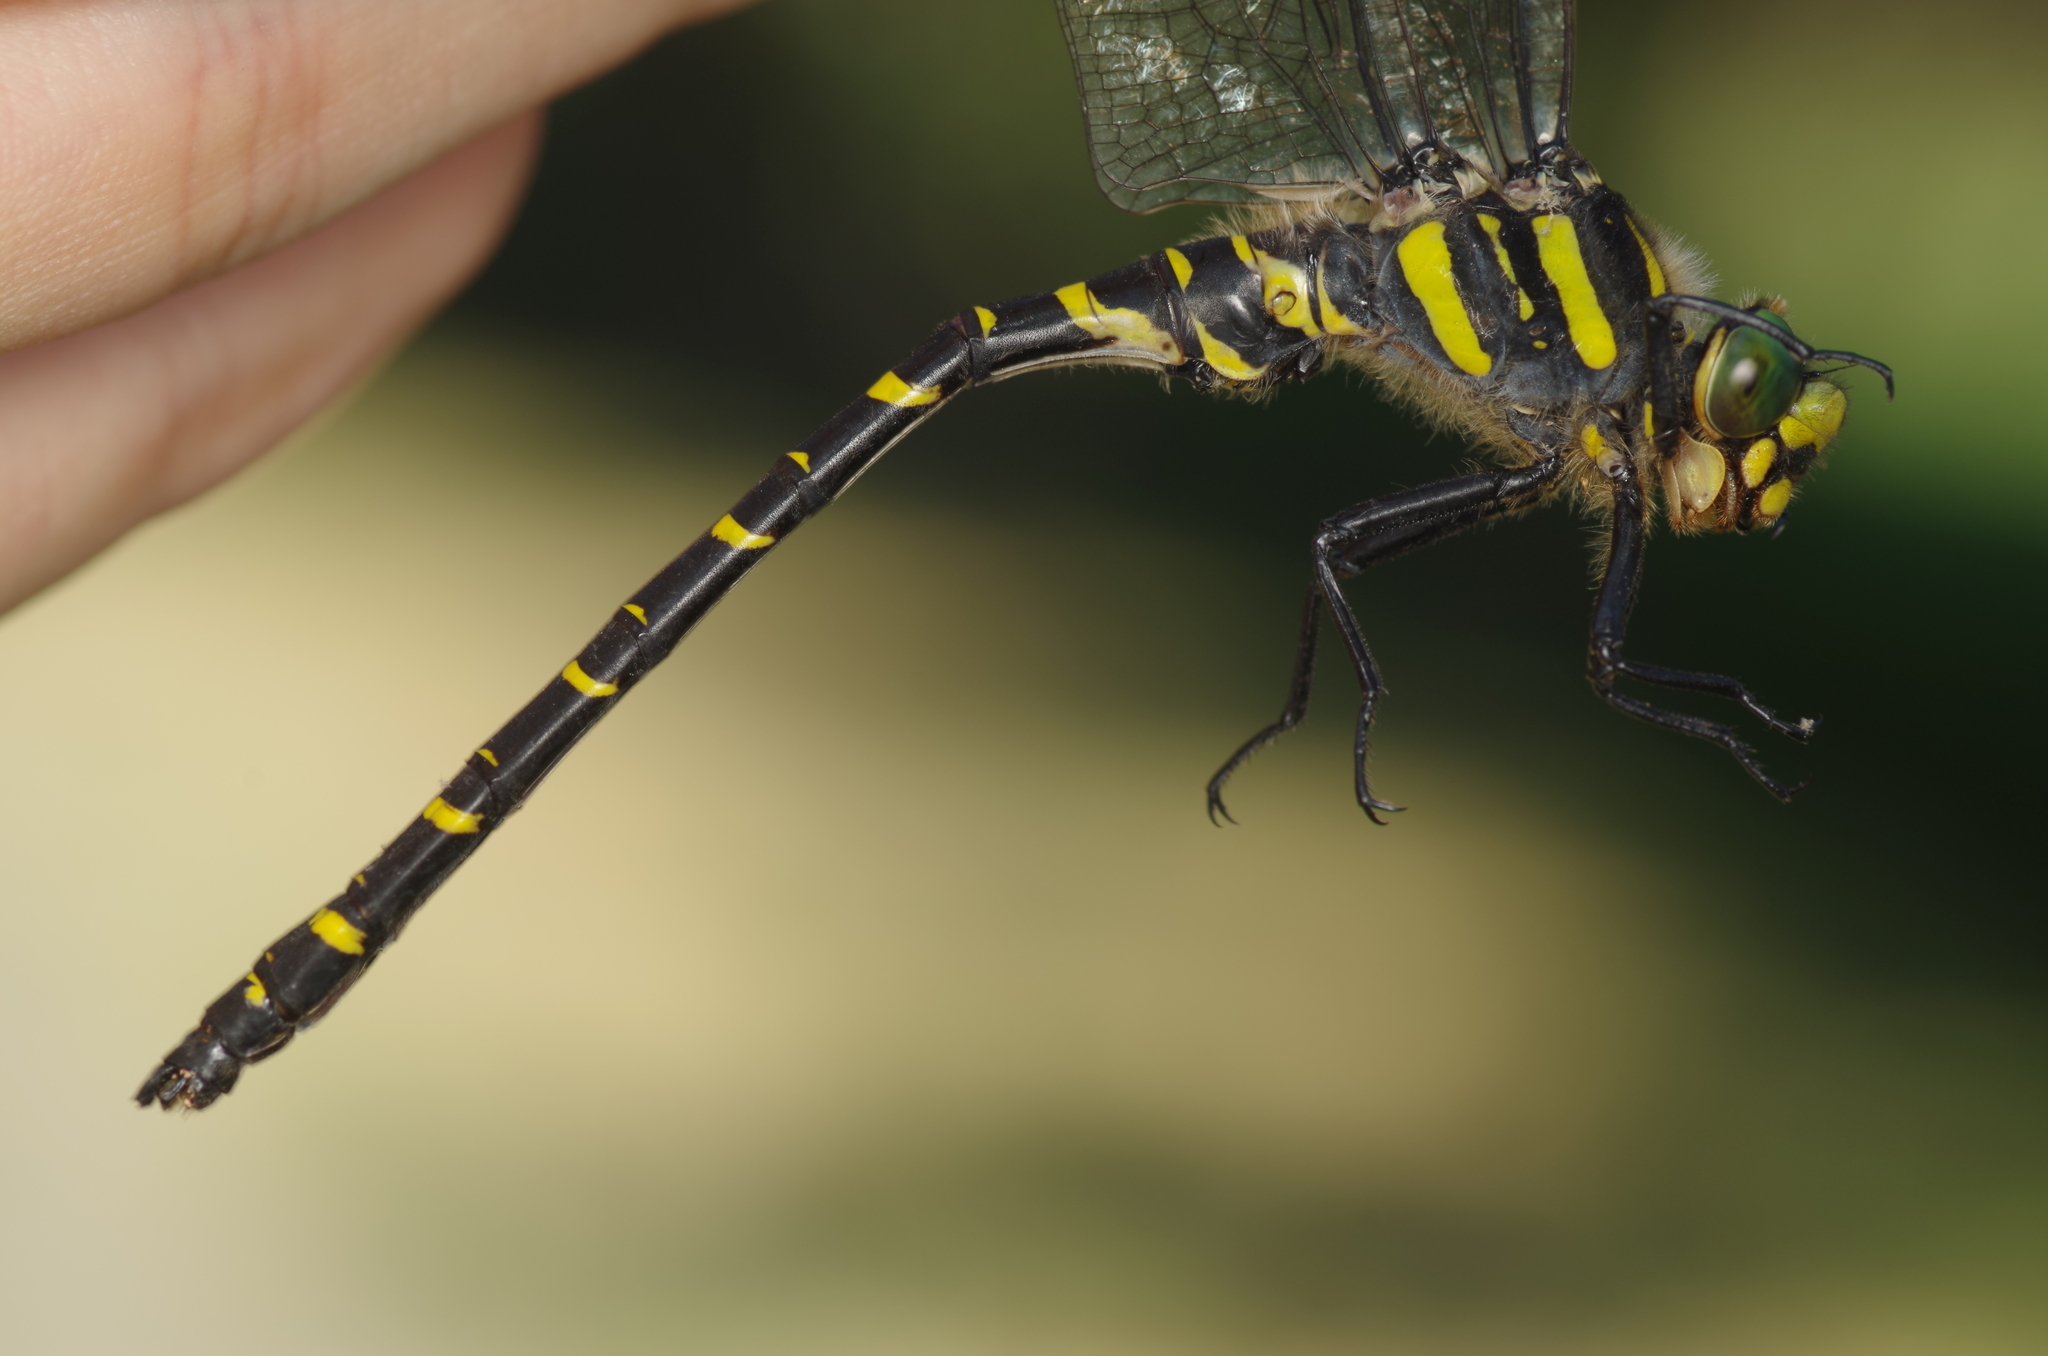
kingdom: Animalia
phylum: Arthropoda
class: Insecta
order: Odonata
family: Cordulegastridae
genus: Cordulegaster
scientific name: Cordulegaster boltonii
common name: Golden-ringed dragonfly
